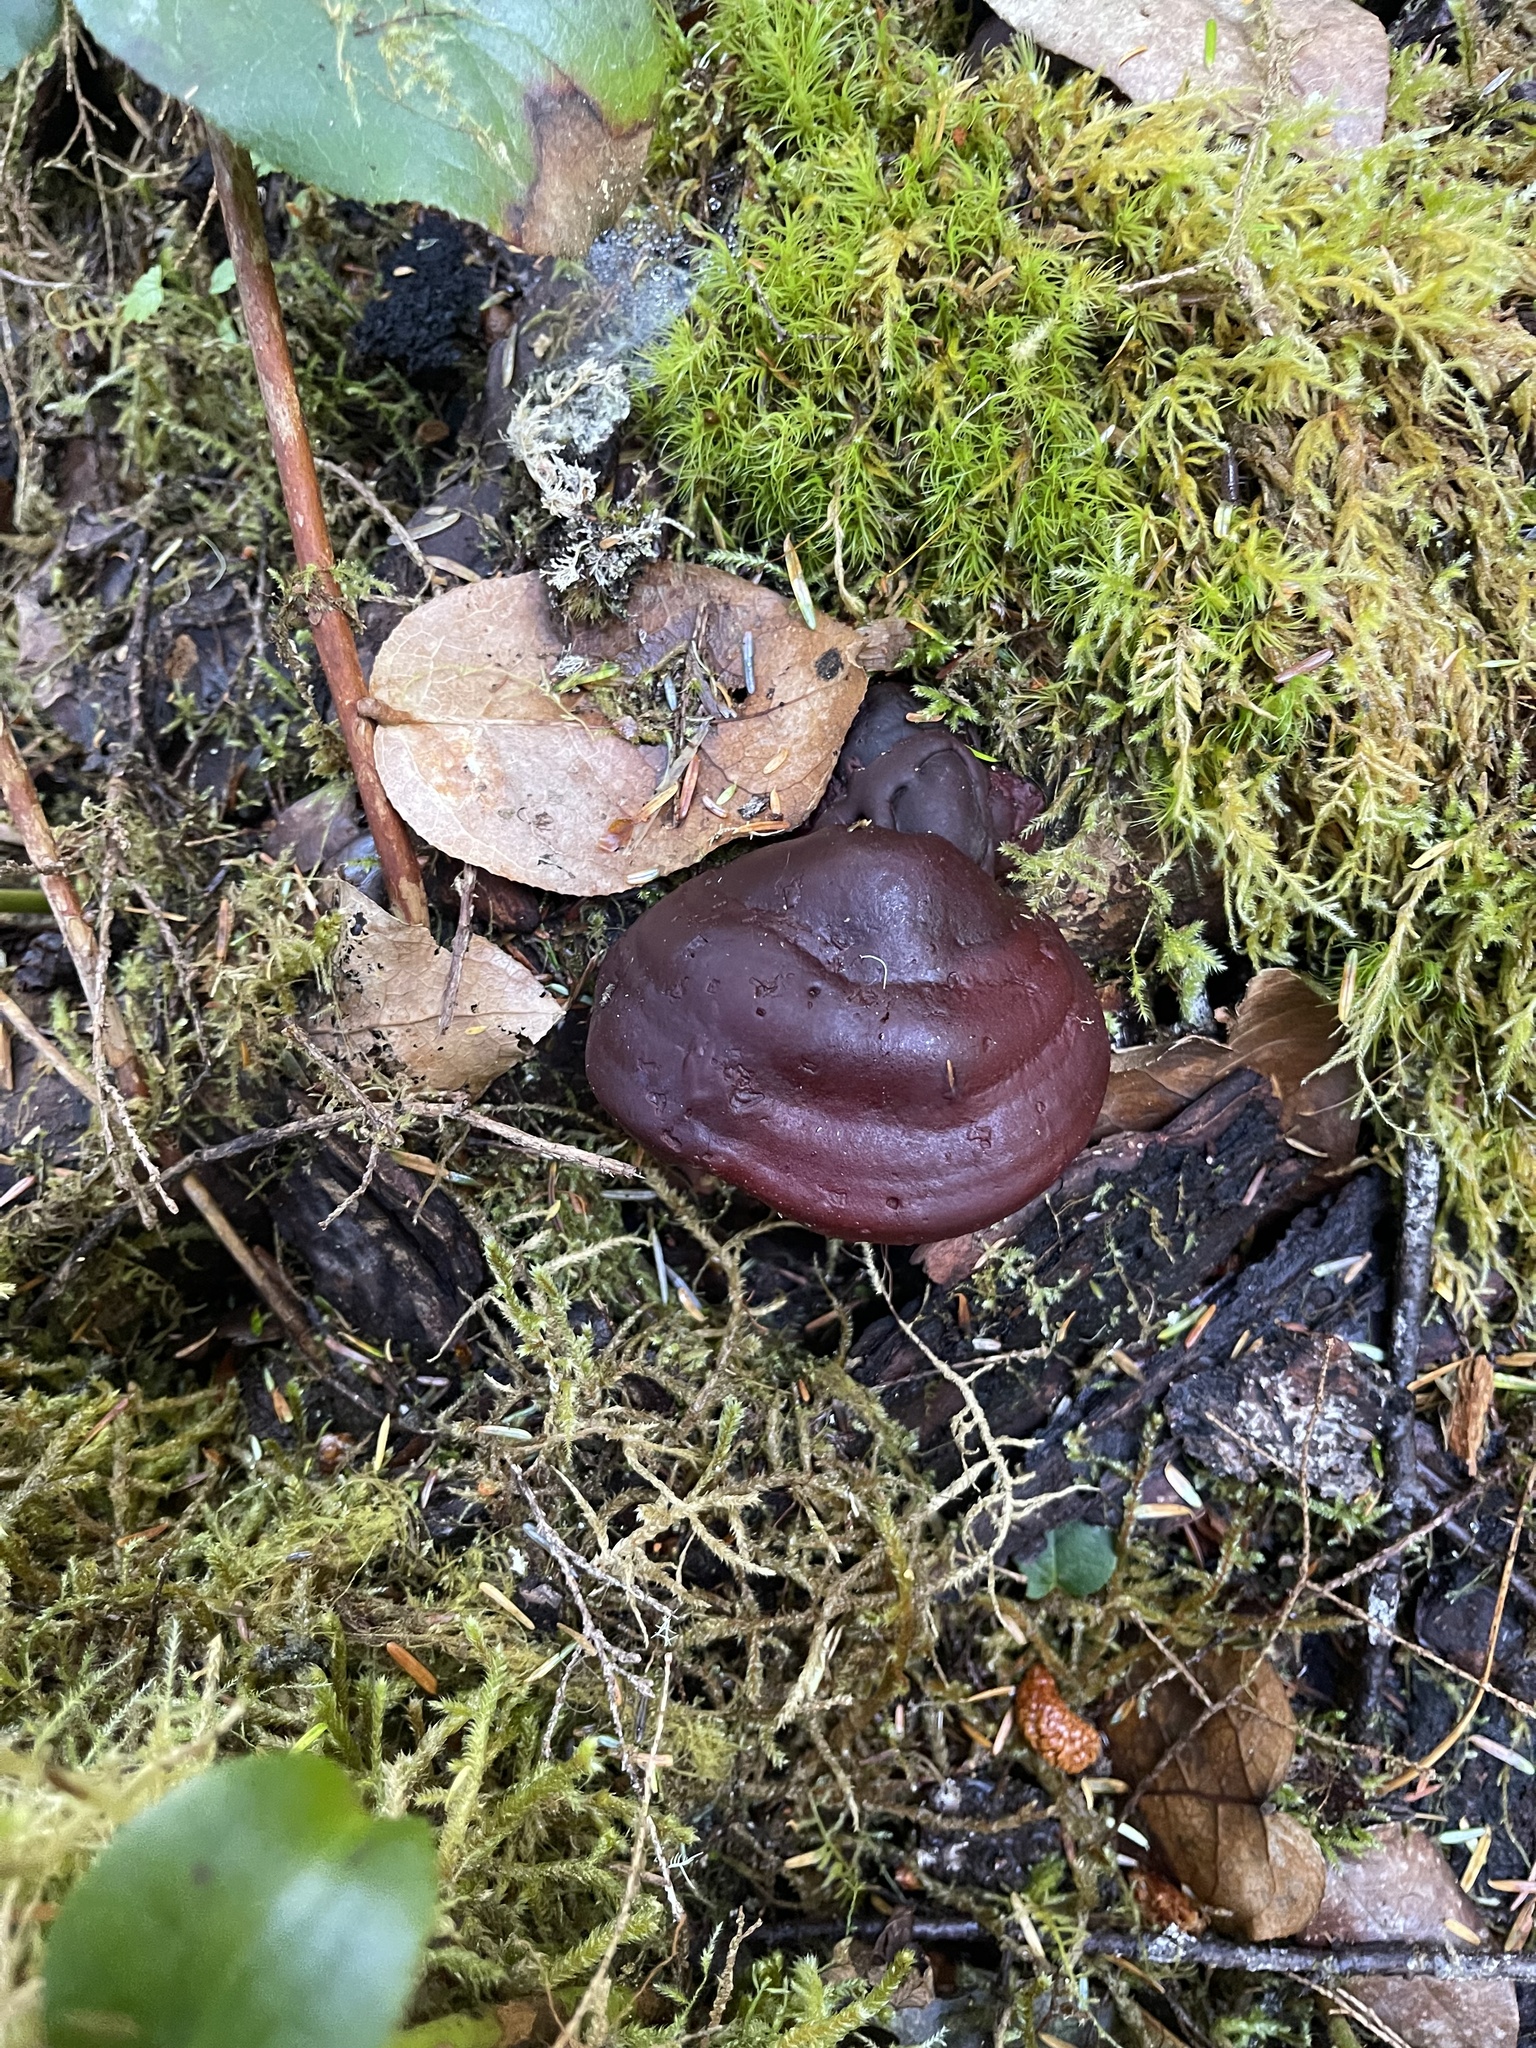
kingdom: Fungi
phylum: Basidiomycota
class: Agaricomycetes
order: Polyporales
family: Polyporaceae
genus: Ganoderma
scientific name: Ganoderma oregonense
